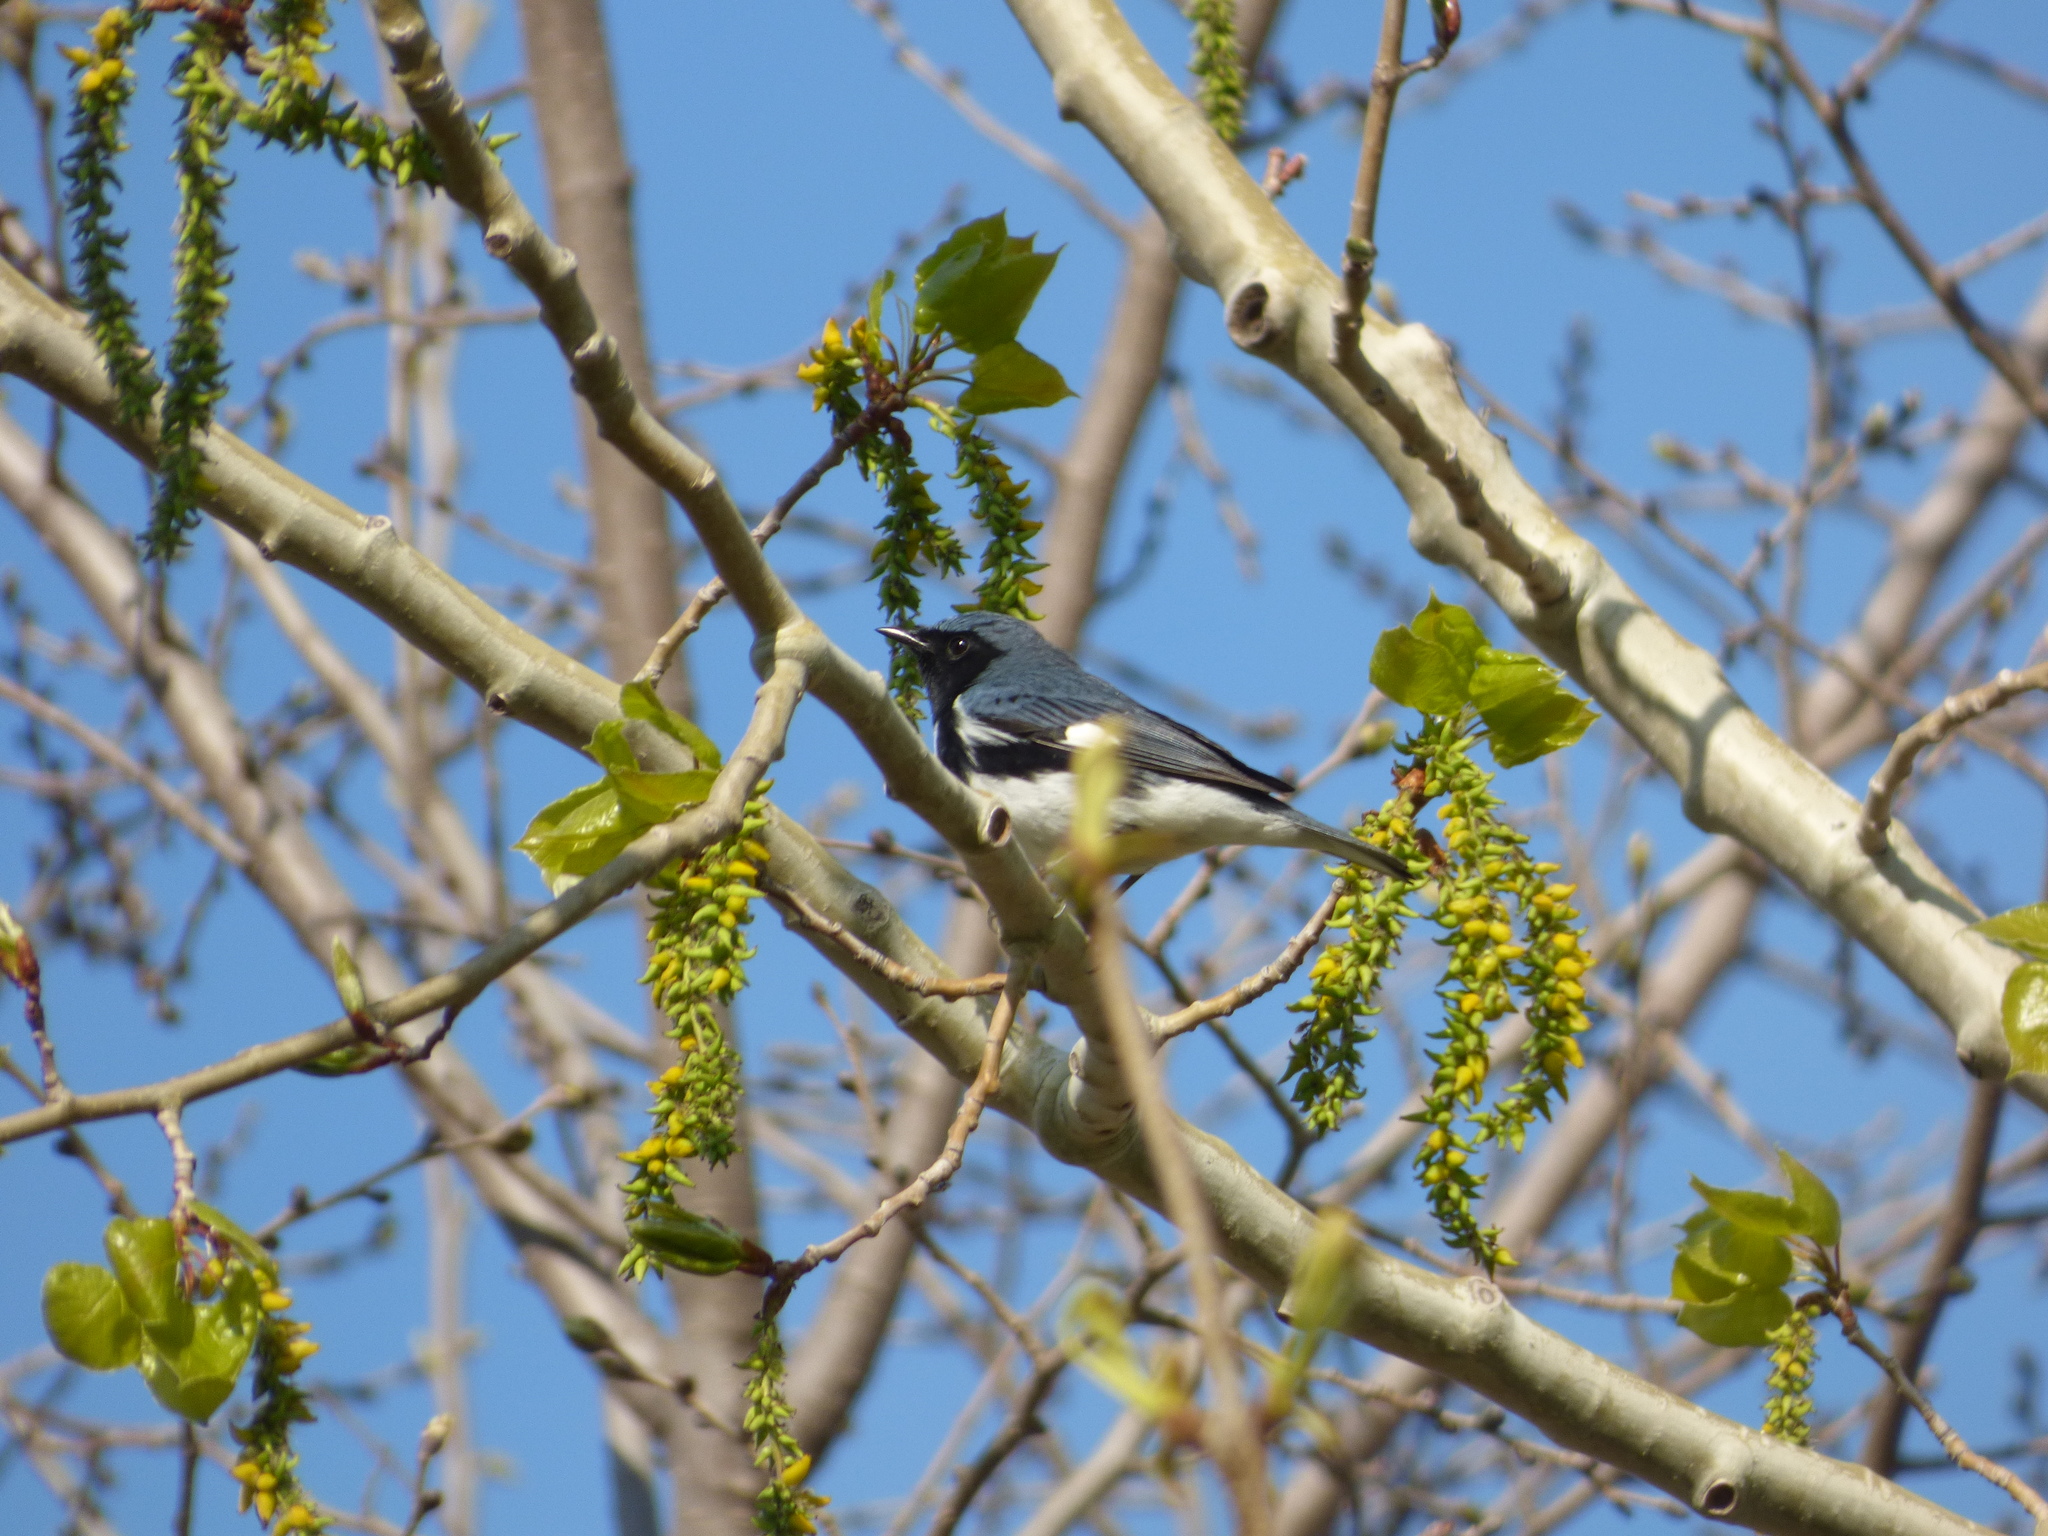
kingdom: Animalia
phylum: Chordata
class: Aves
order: Passeriformes
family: Parulidae
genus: Setophaga
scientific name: Setophaga caerulescens
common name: Black-throated blue warbler
